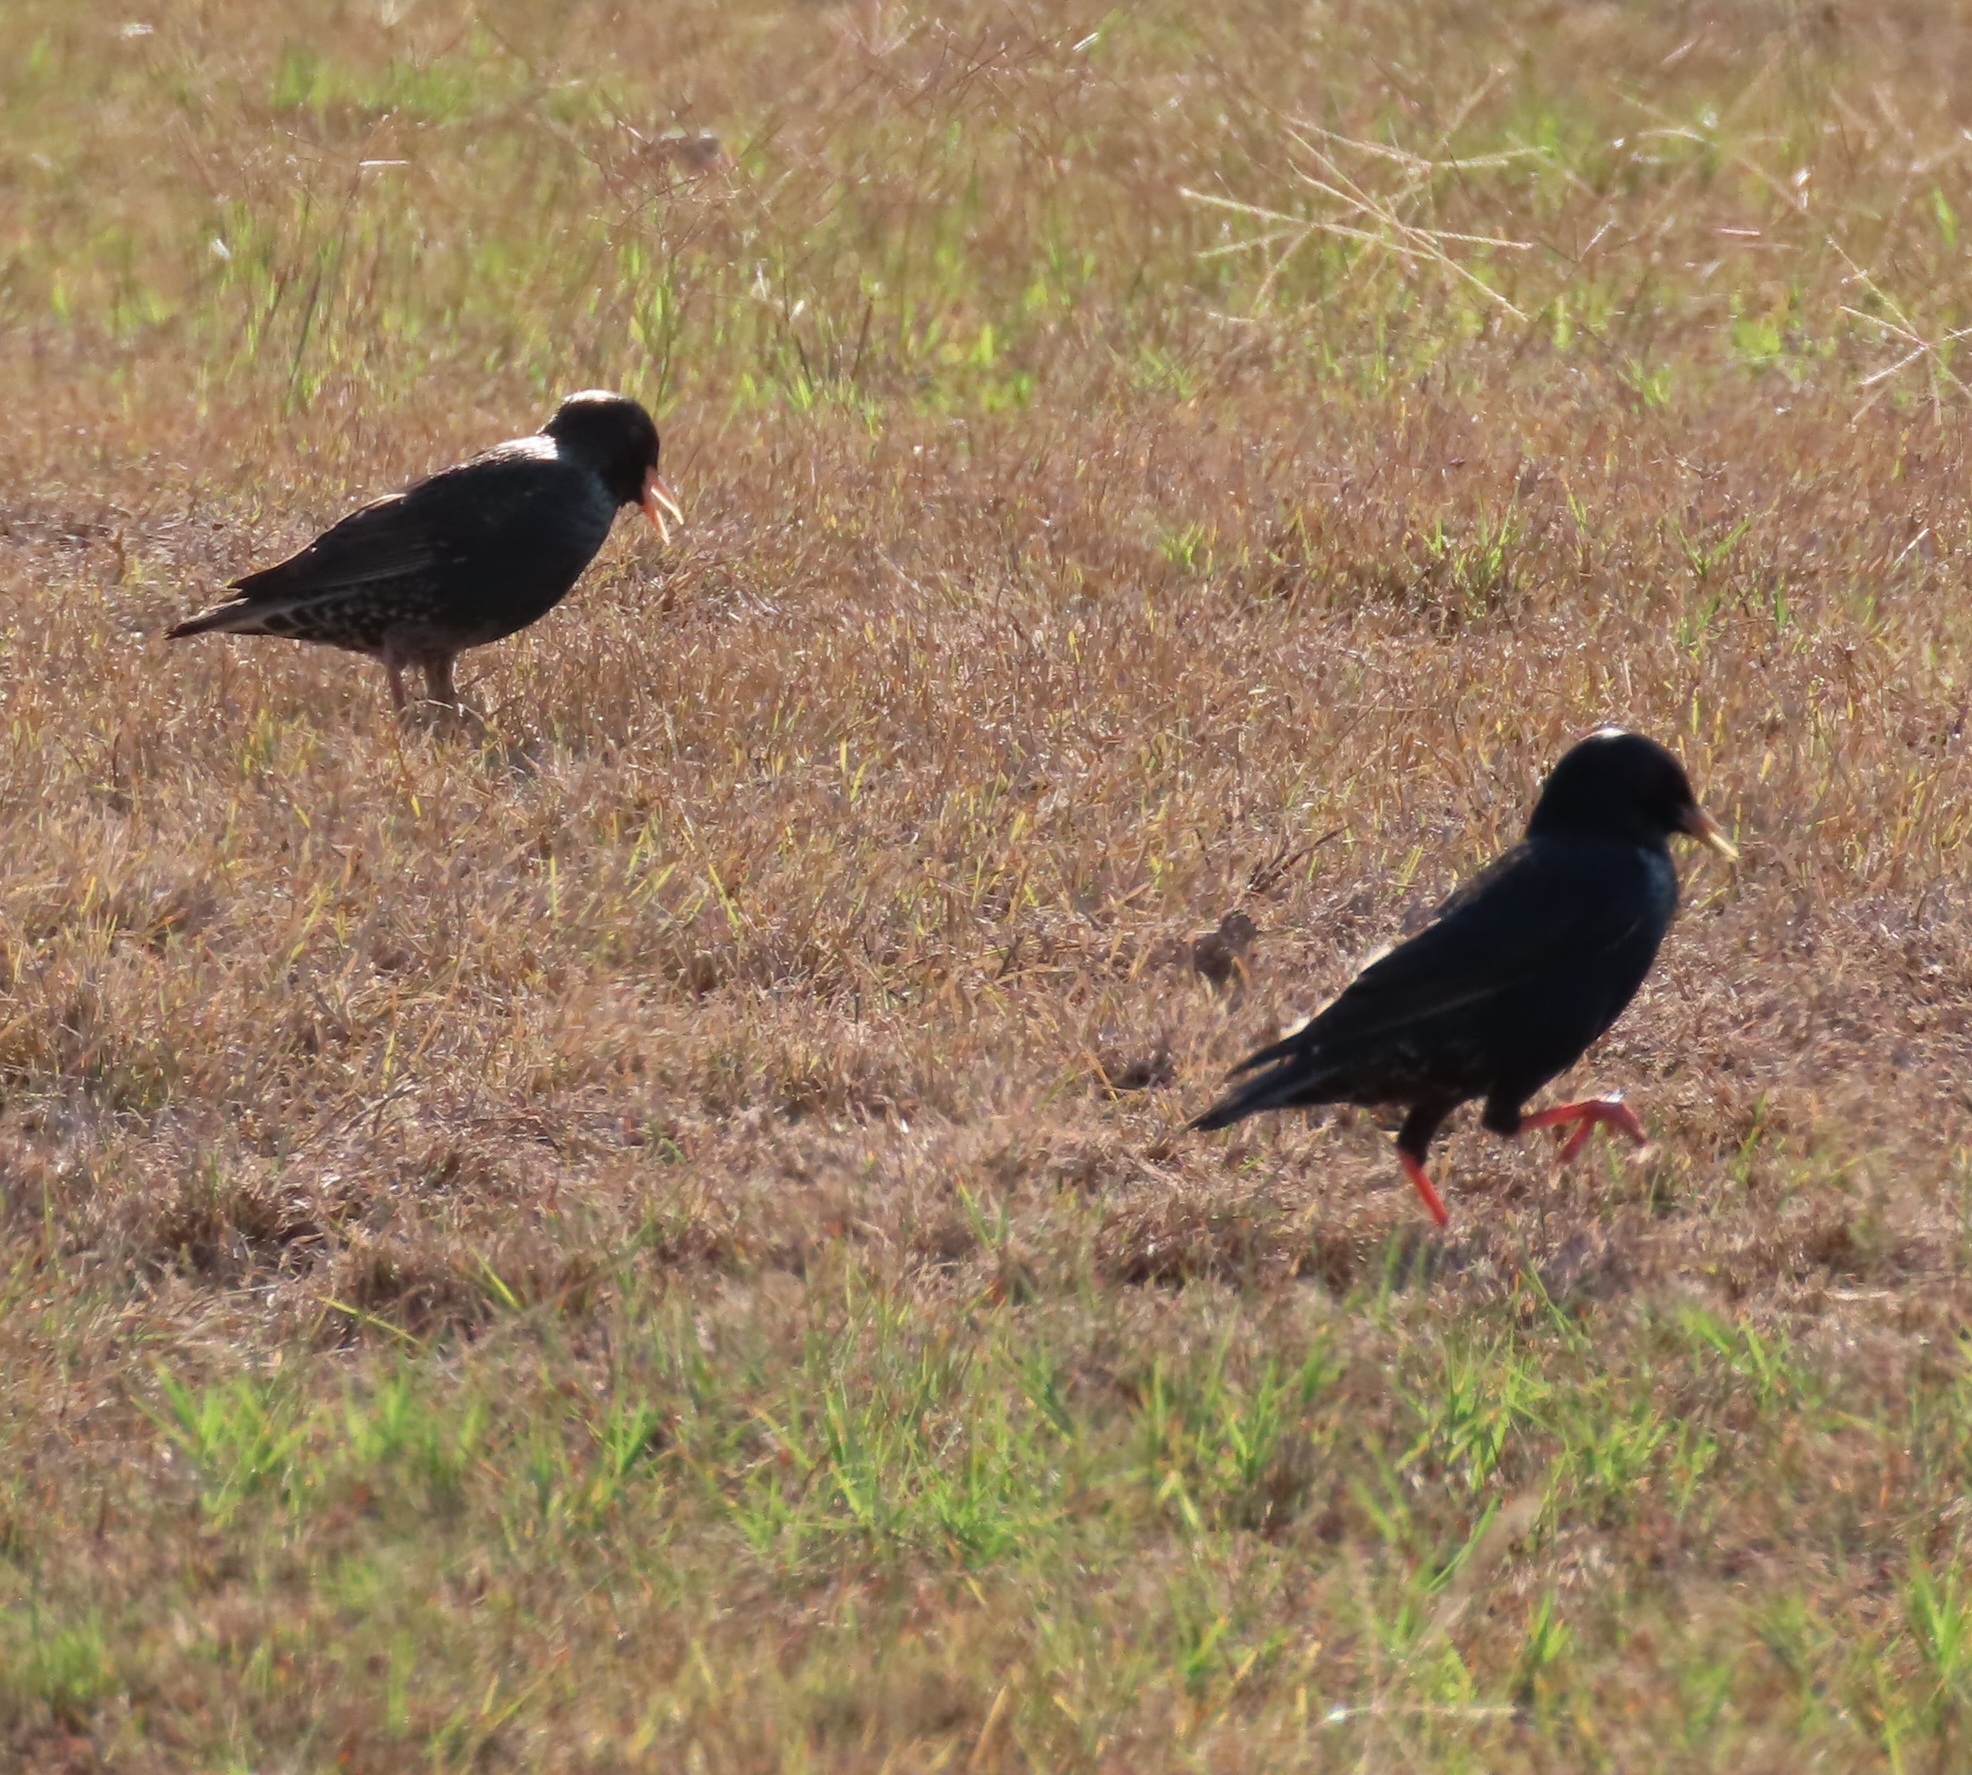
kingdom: Animalia
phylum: Chordata
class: Aves
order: Passeriformes
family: Sturnidae
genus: Sturnus
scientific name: Sturnus vulgaris
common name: Common starling
